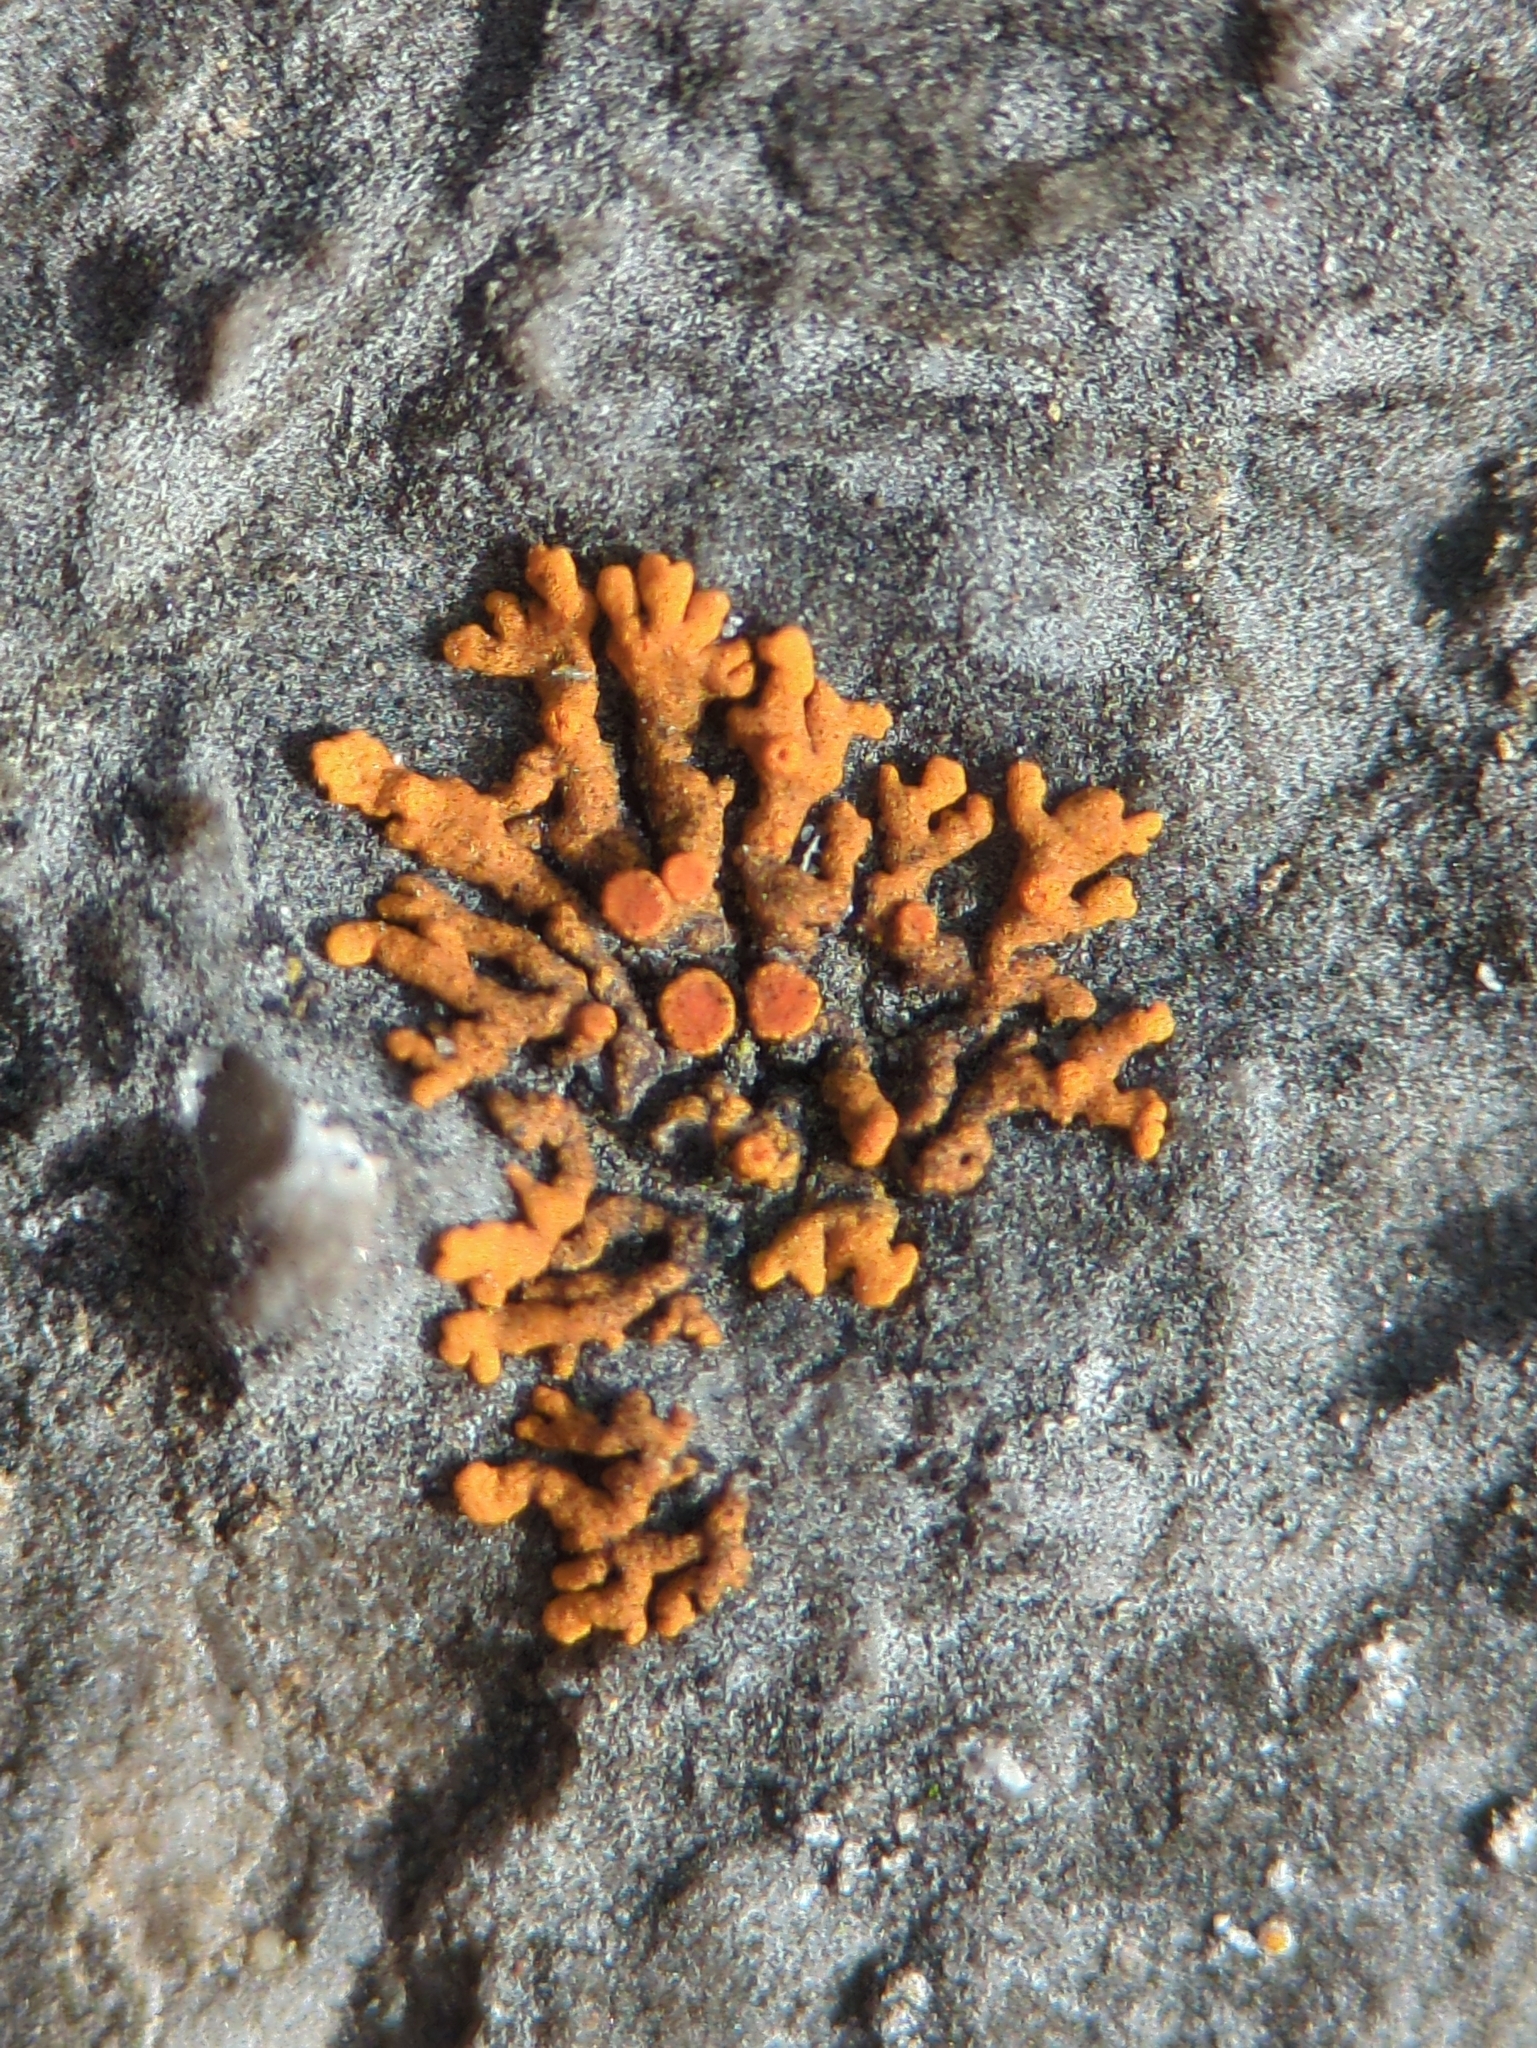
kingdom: Fungi
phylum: Ascomycota
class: Lecanoromycetes
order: Teloschistales
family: Teloschistaceae
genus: Xanthoria
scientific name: Xanthoria elegans
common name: Elegant sunburst lichen
